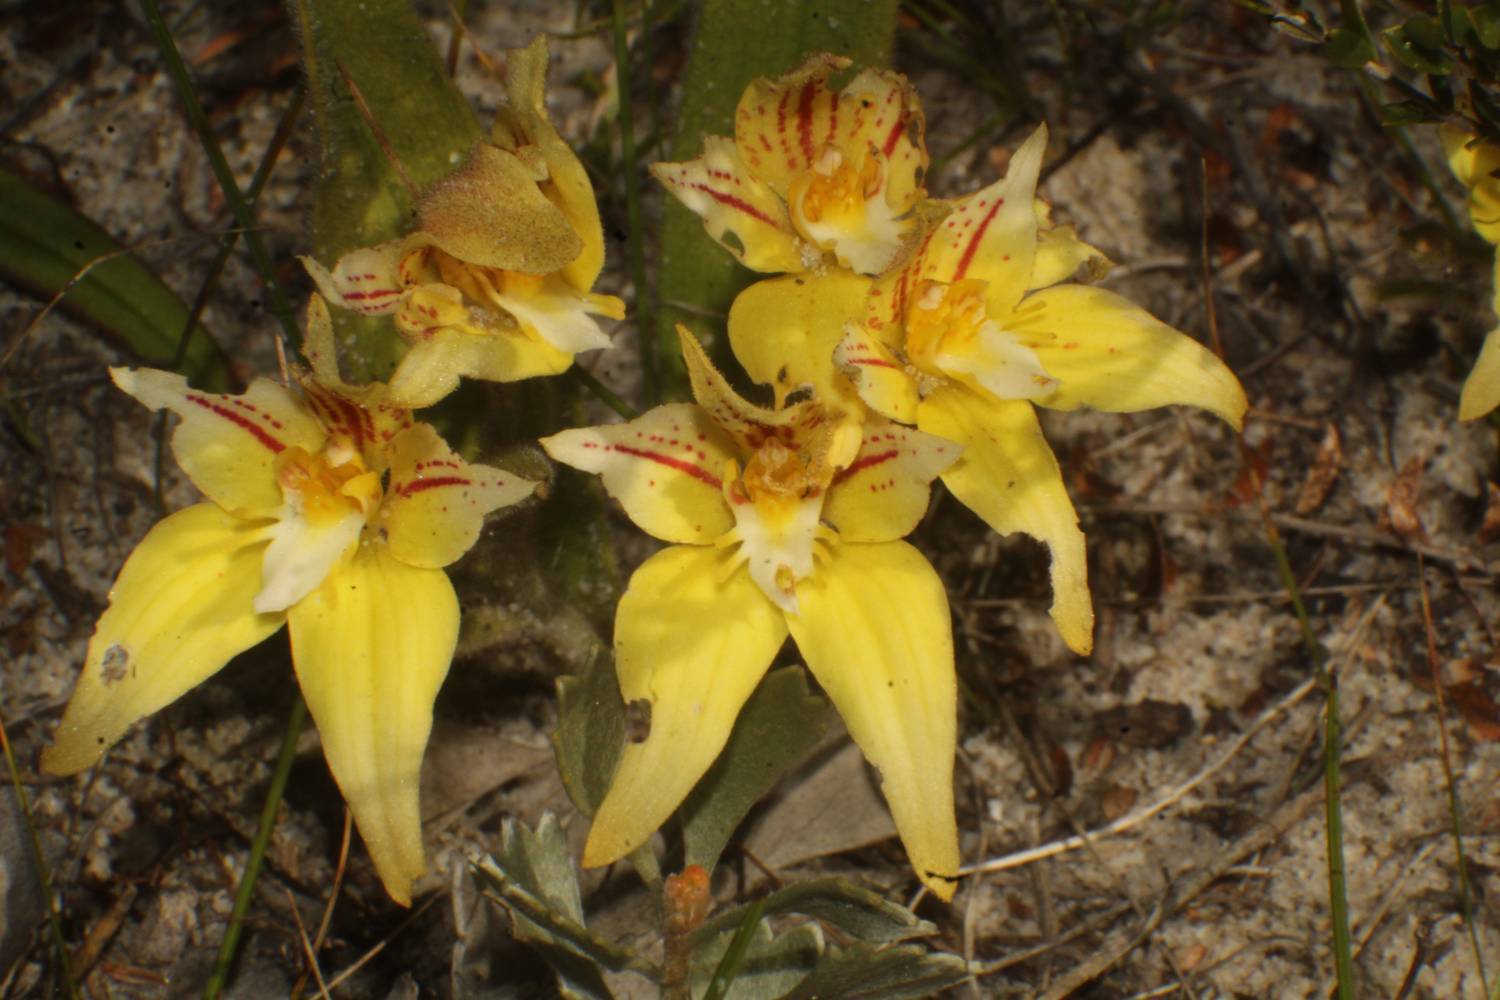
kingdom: Plantae
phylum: Tracheophyta
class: Liliopsida
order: Asparagales
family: Orchidaceae
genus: Caladenia
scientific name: Caladenia flava
